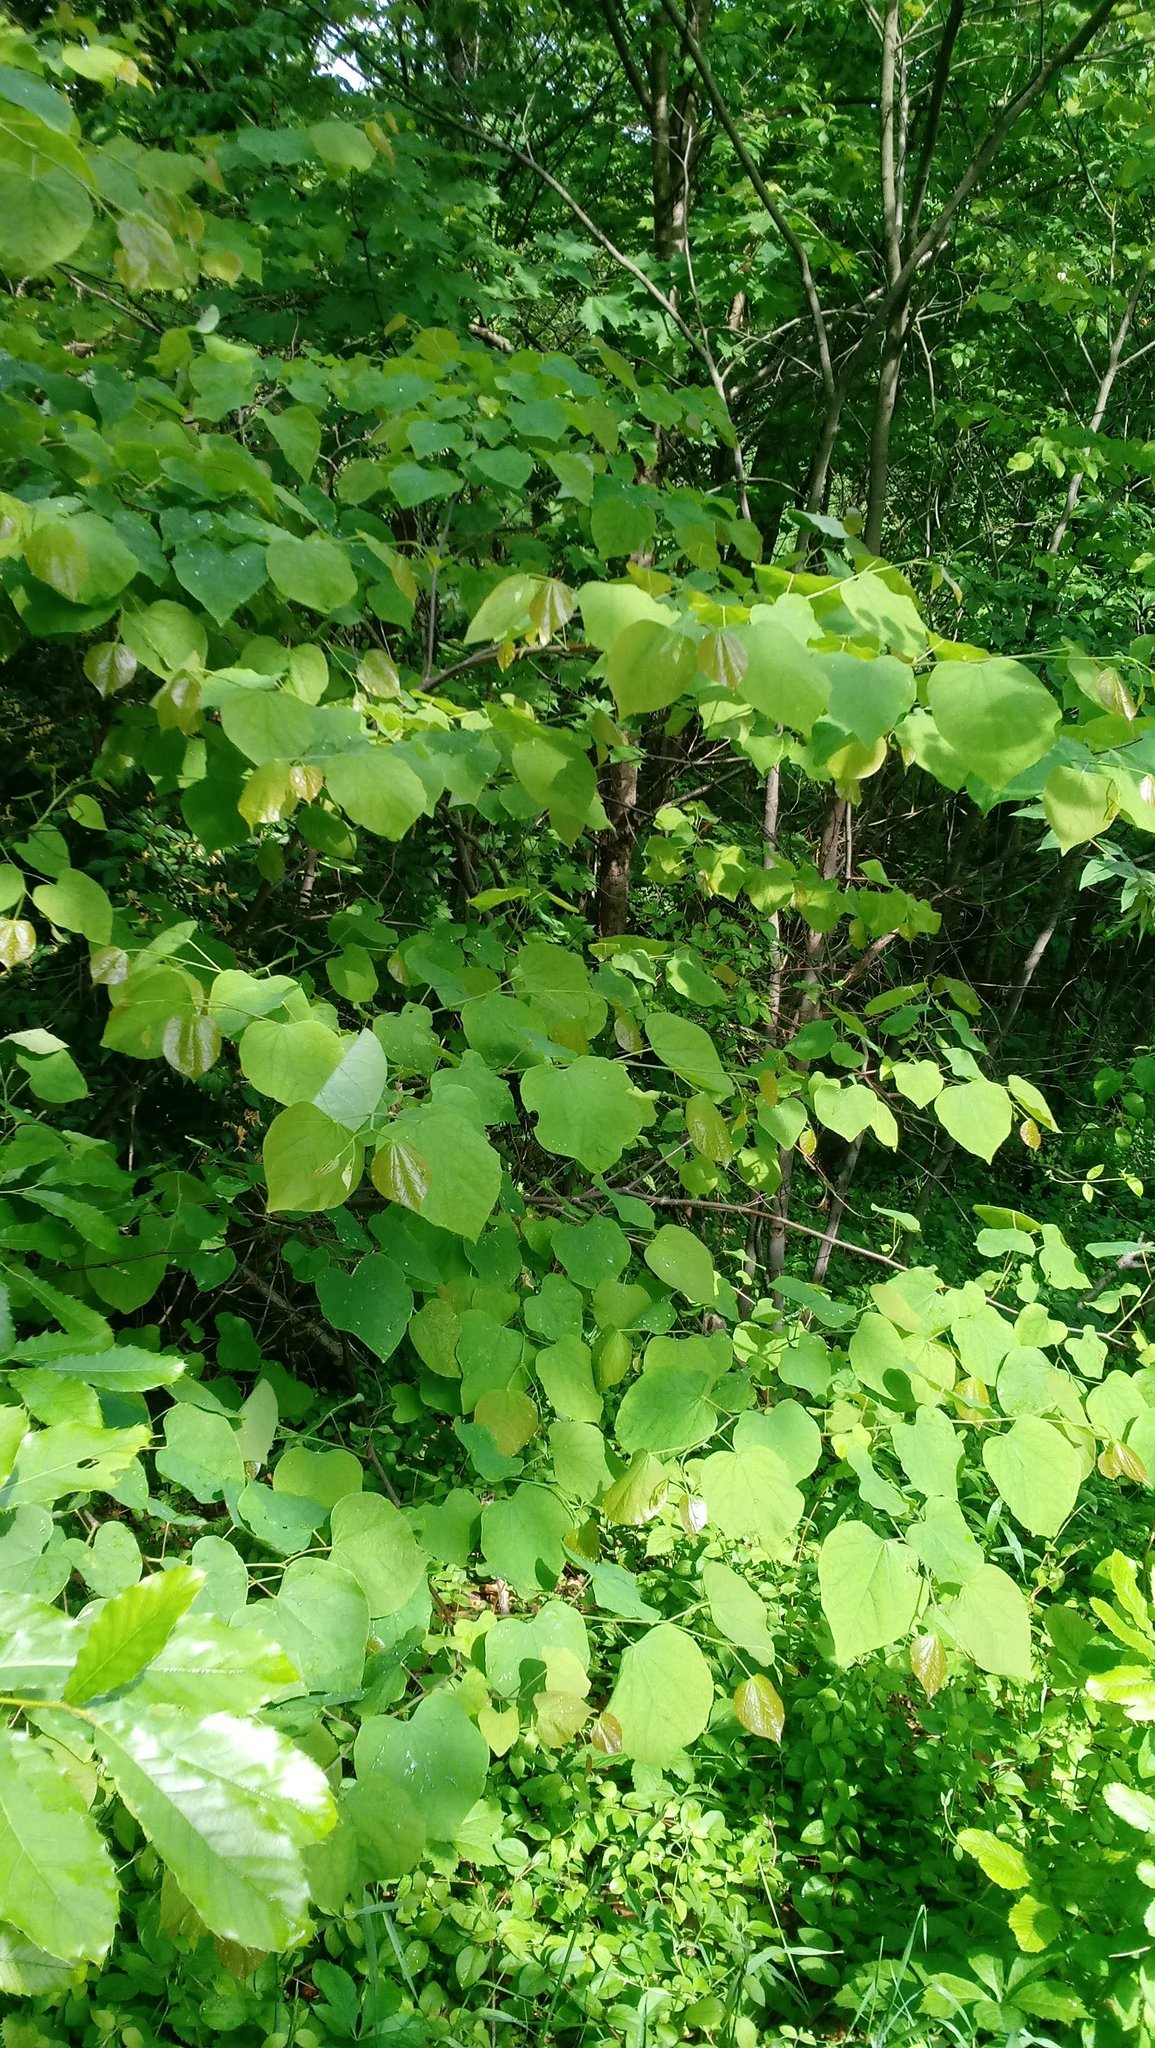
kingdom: Plantae
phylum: Tracheophyta
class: Magnoliopsida
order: Fabales
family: Fabaceae
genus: Cercis
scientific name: Cercis canadensis
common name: Eastern redbud
